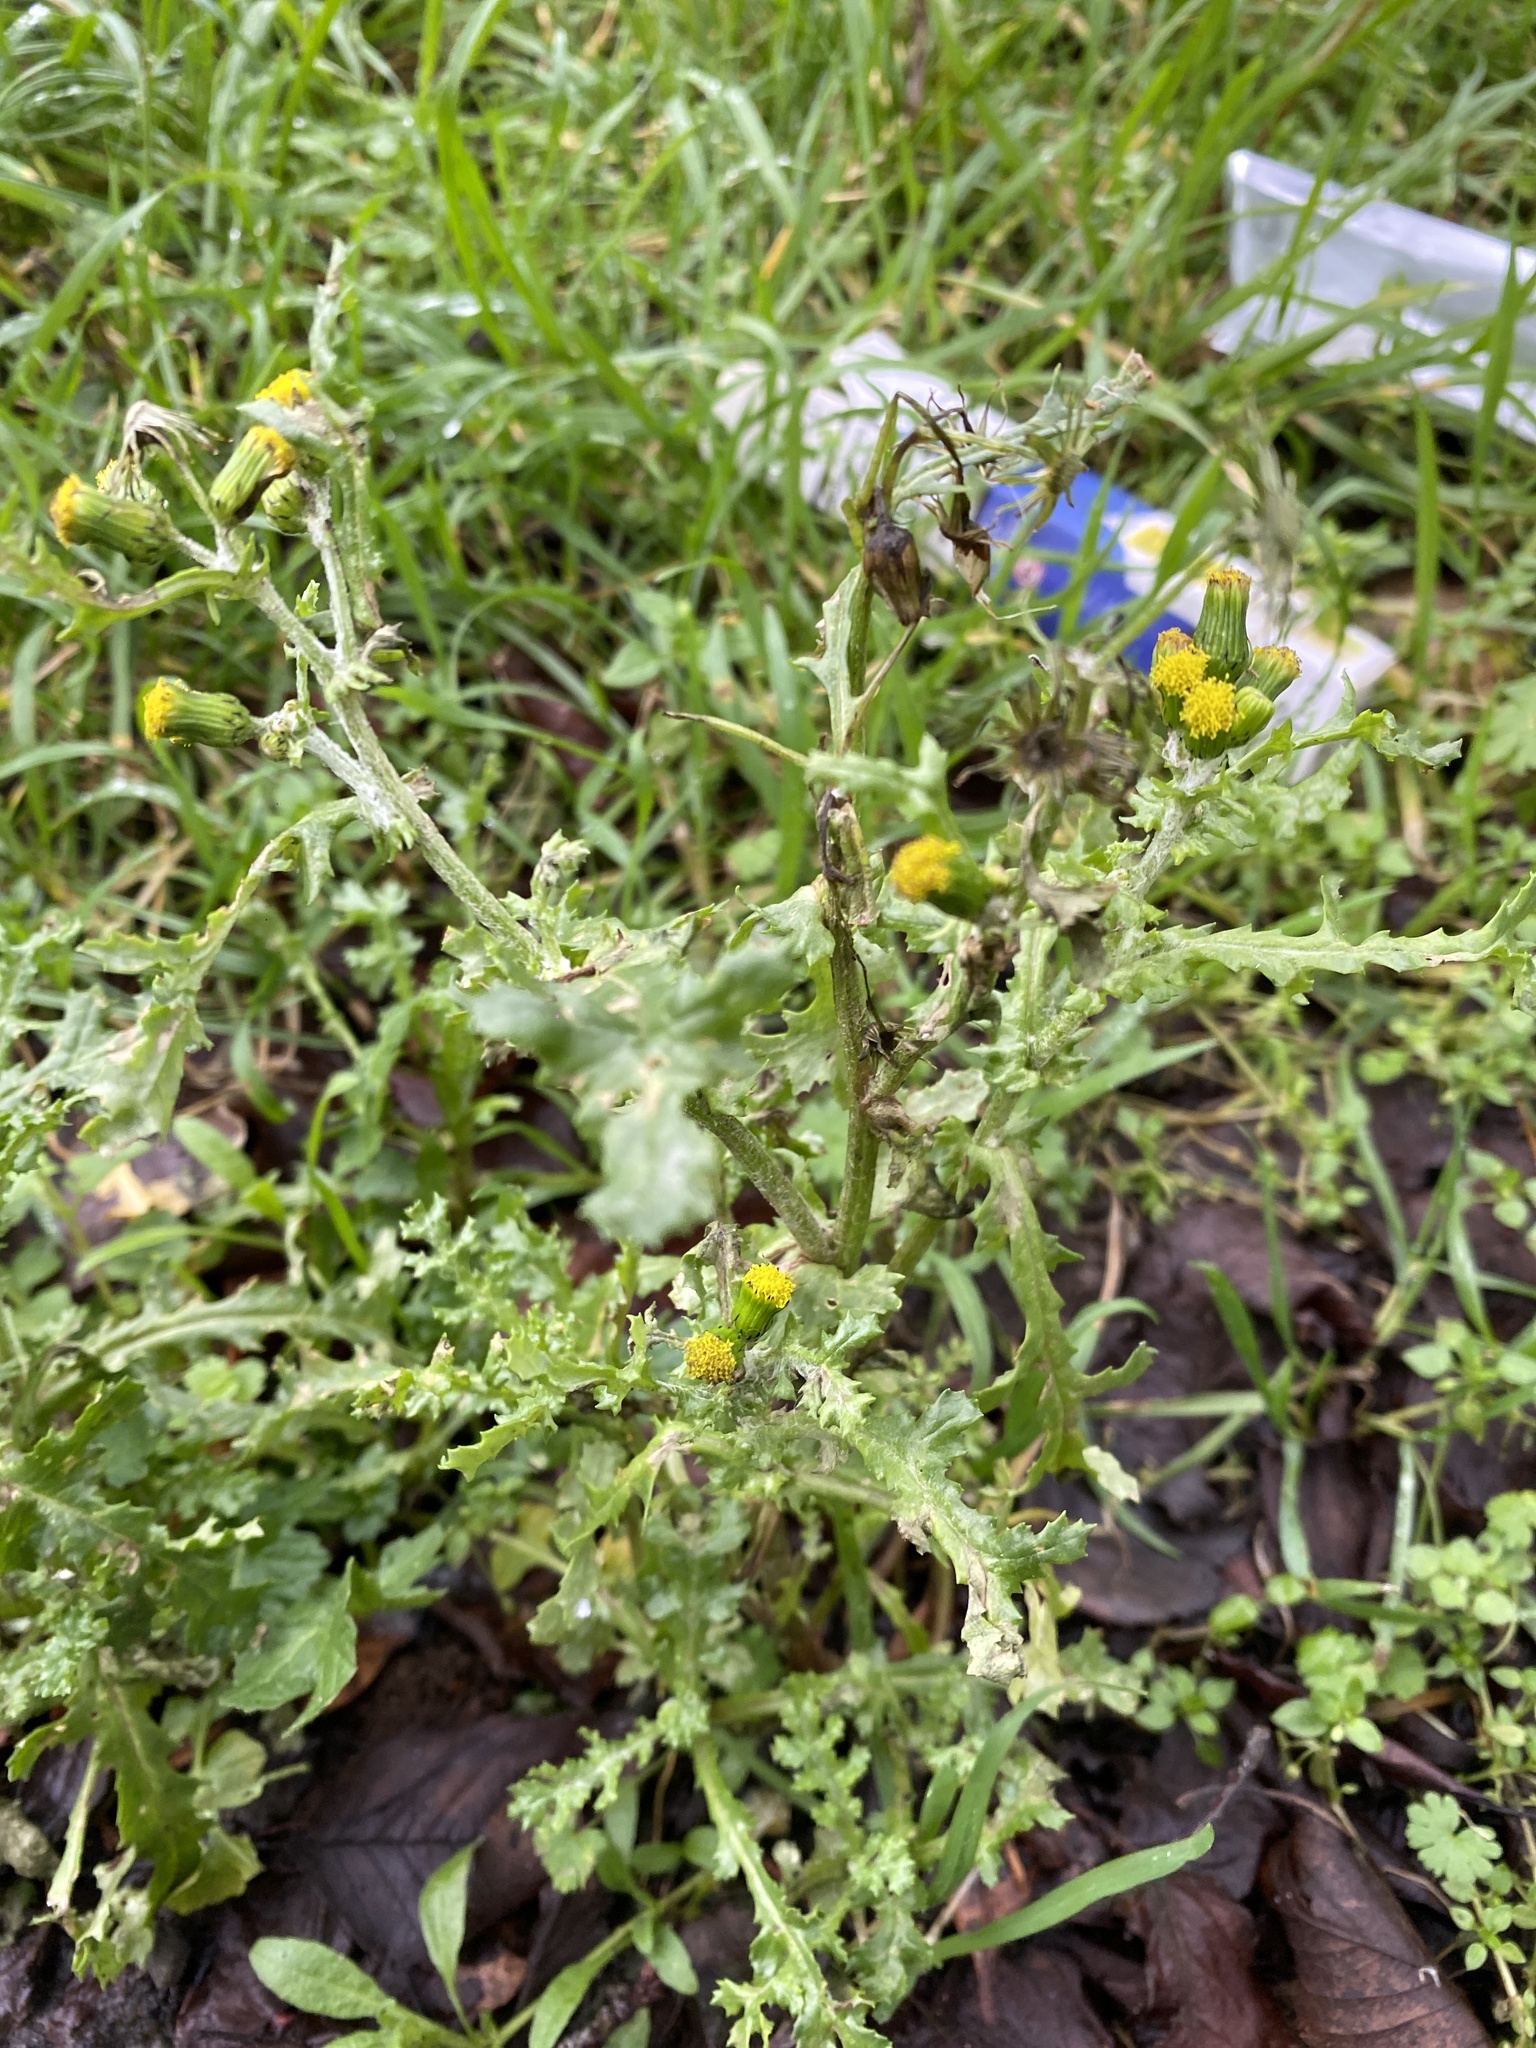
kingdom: Plantae
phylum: Tracheophyta
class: Magnoliopsida
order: Asterales
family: Asteraceae
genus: Senecio
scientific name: Senecio vulgaris
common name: Old-man-in-the-spring
